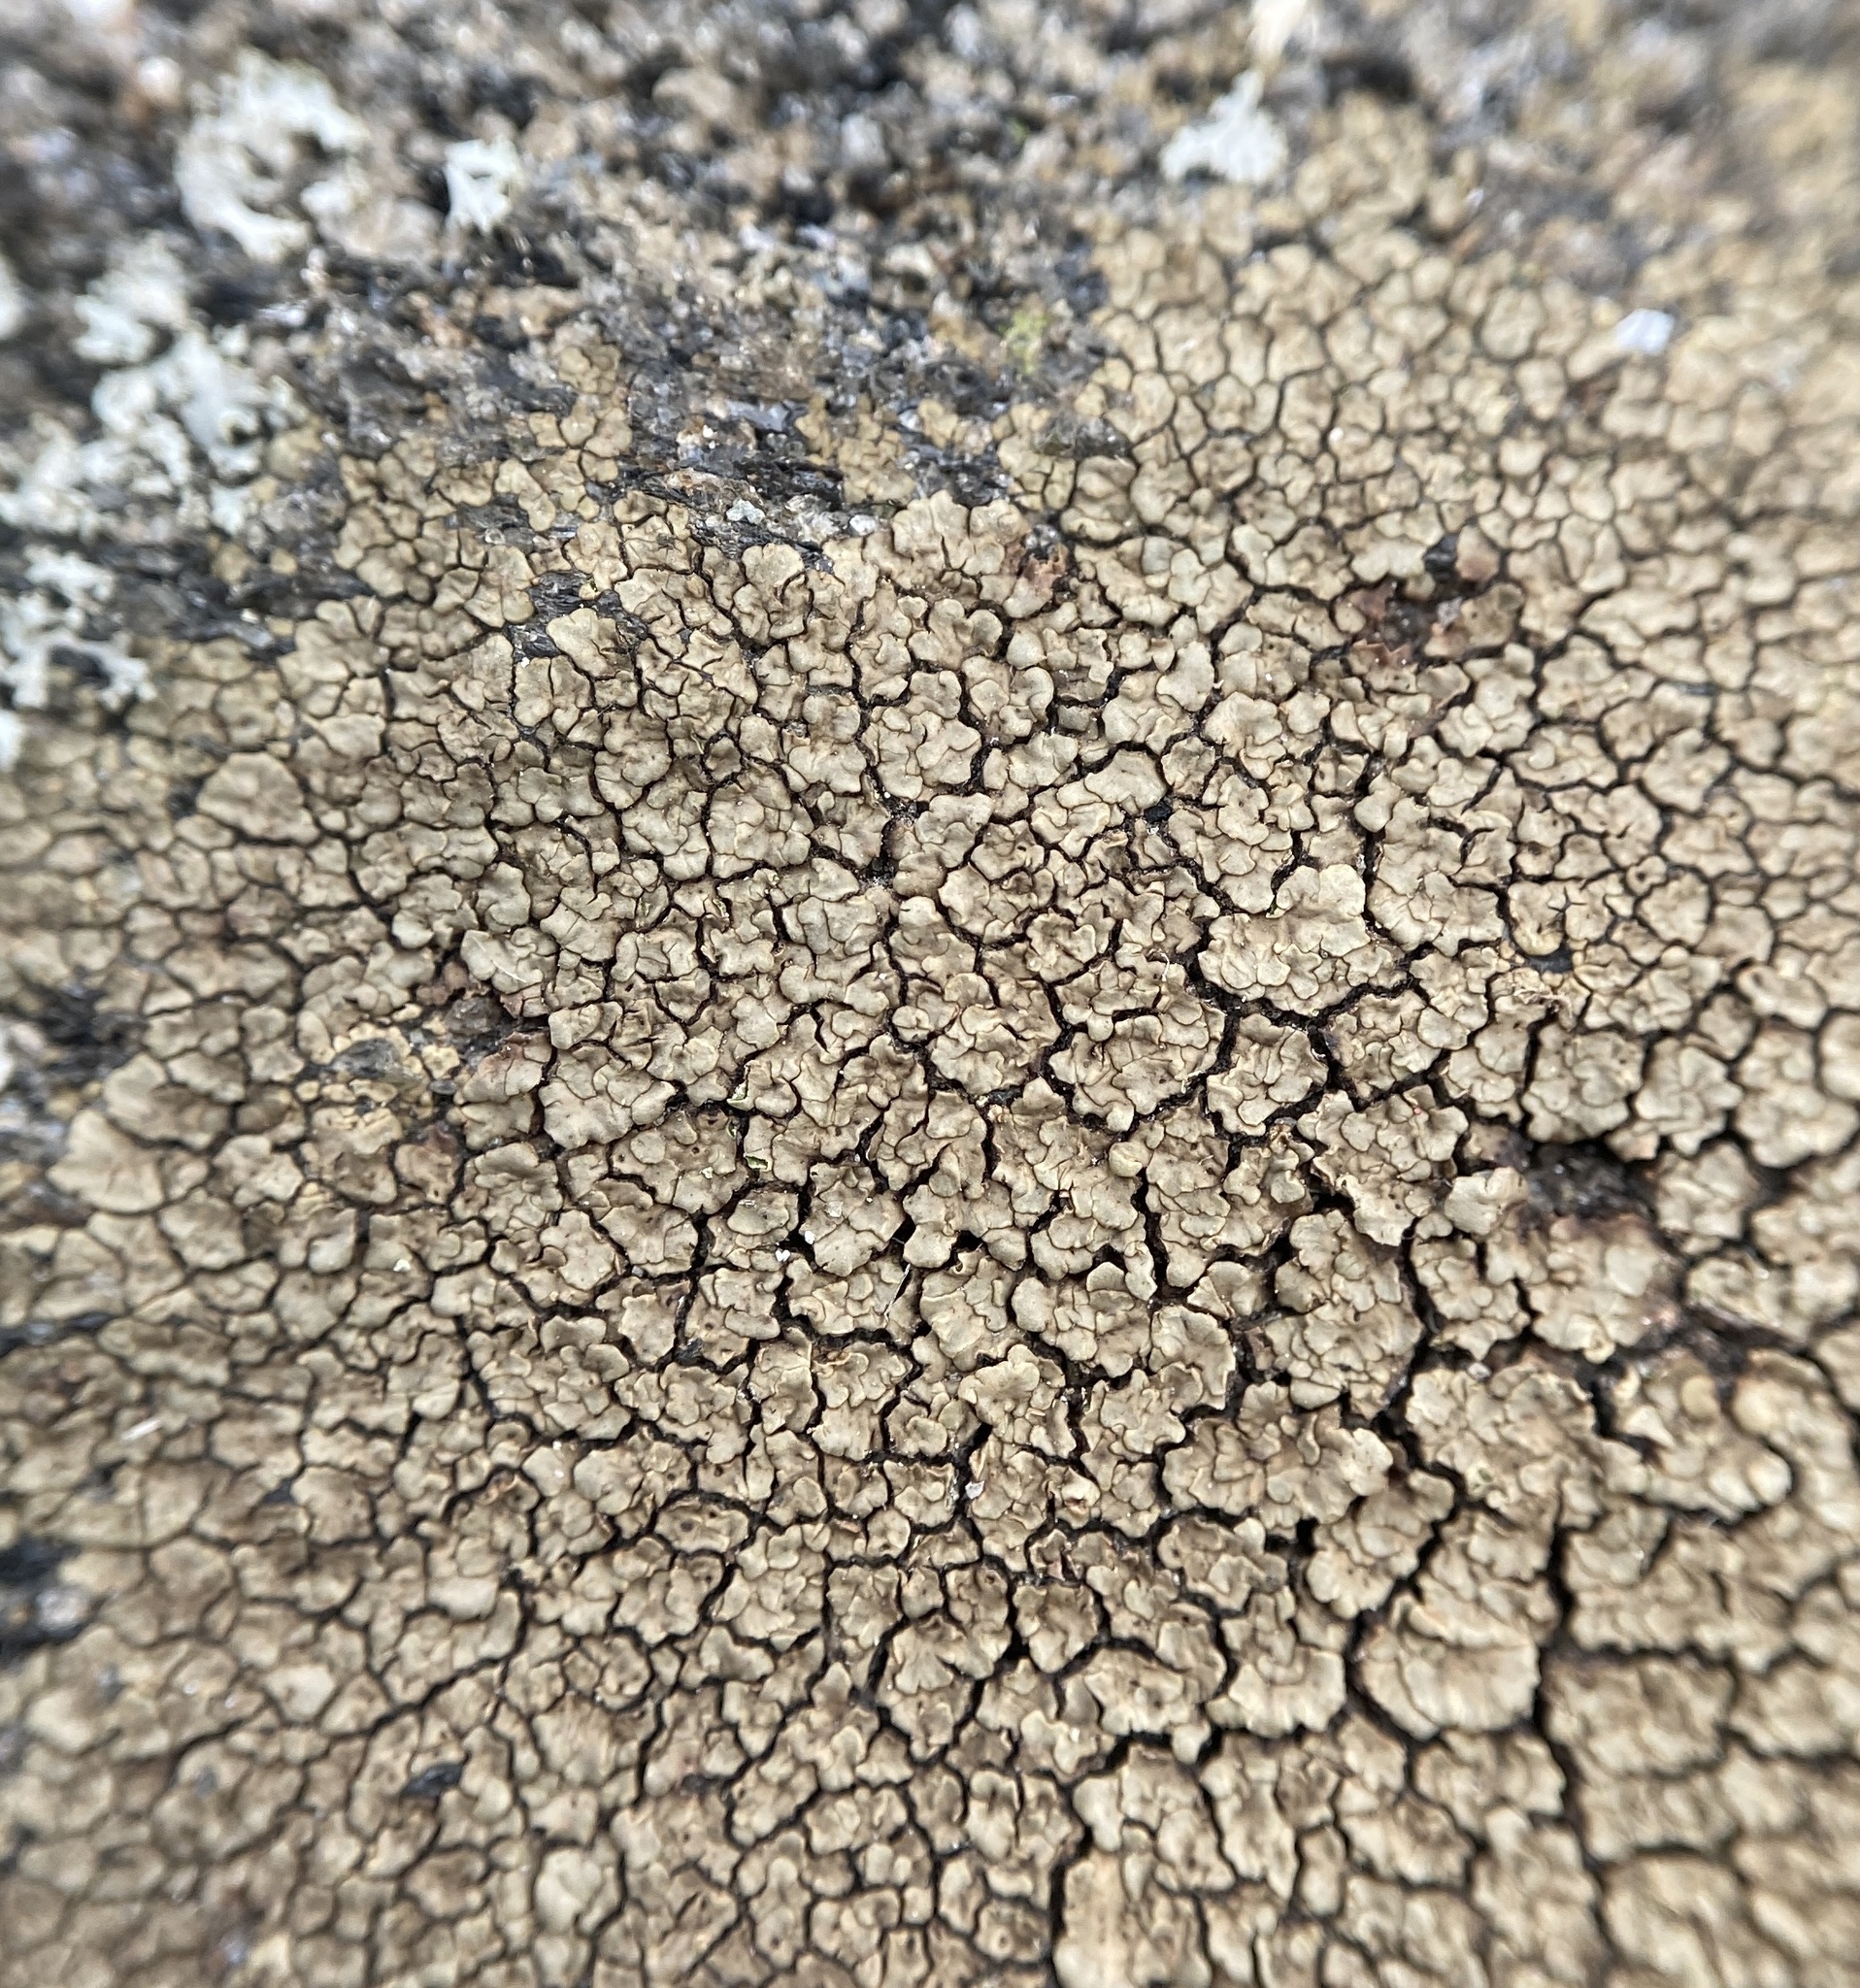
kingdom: Fungi
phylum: Ascomycota
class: Lecanoromycetes
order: Acarosporales
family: Acarosporaceae
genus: Acarospora
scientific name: Acarospora fuscata
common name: Brown cobblestone lichen
